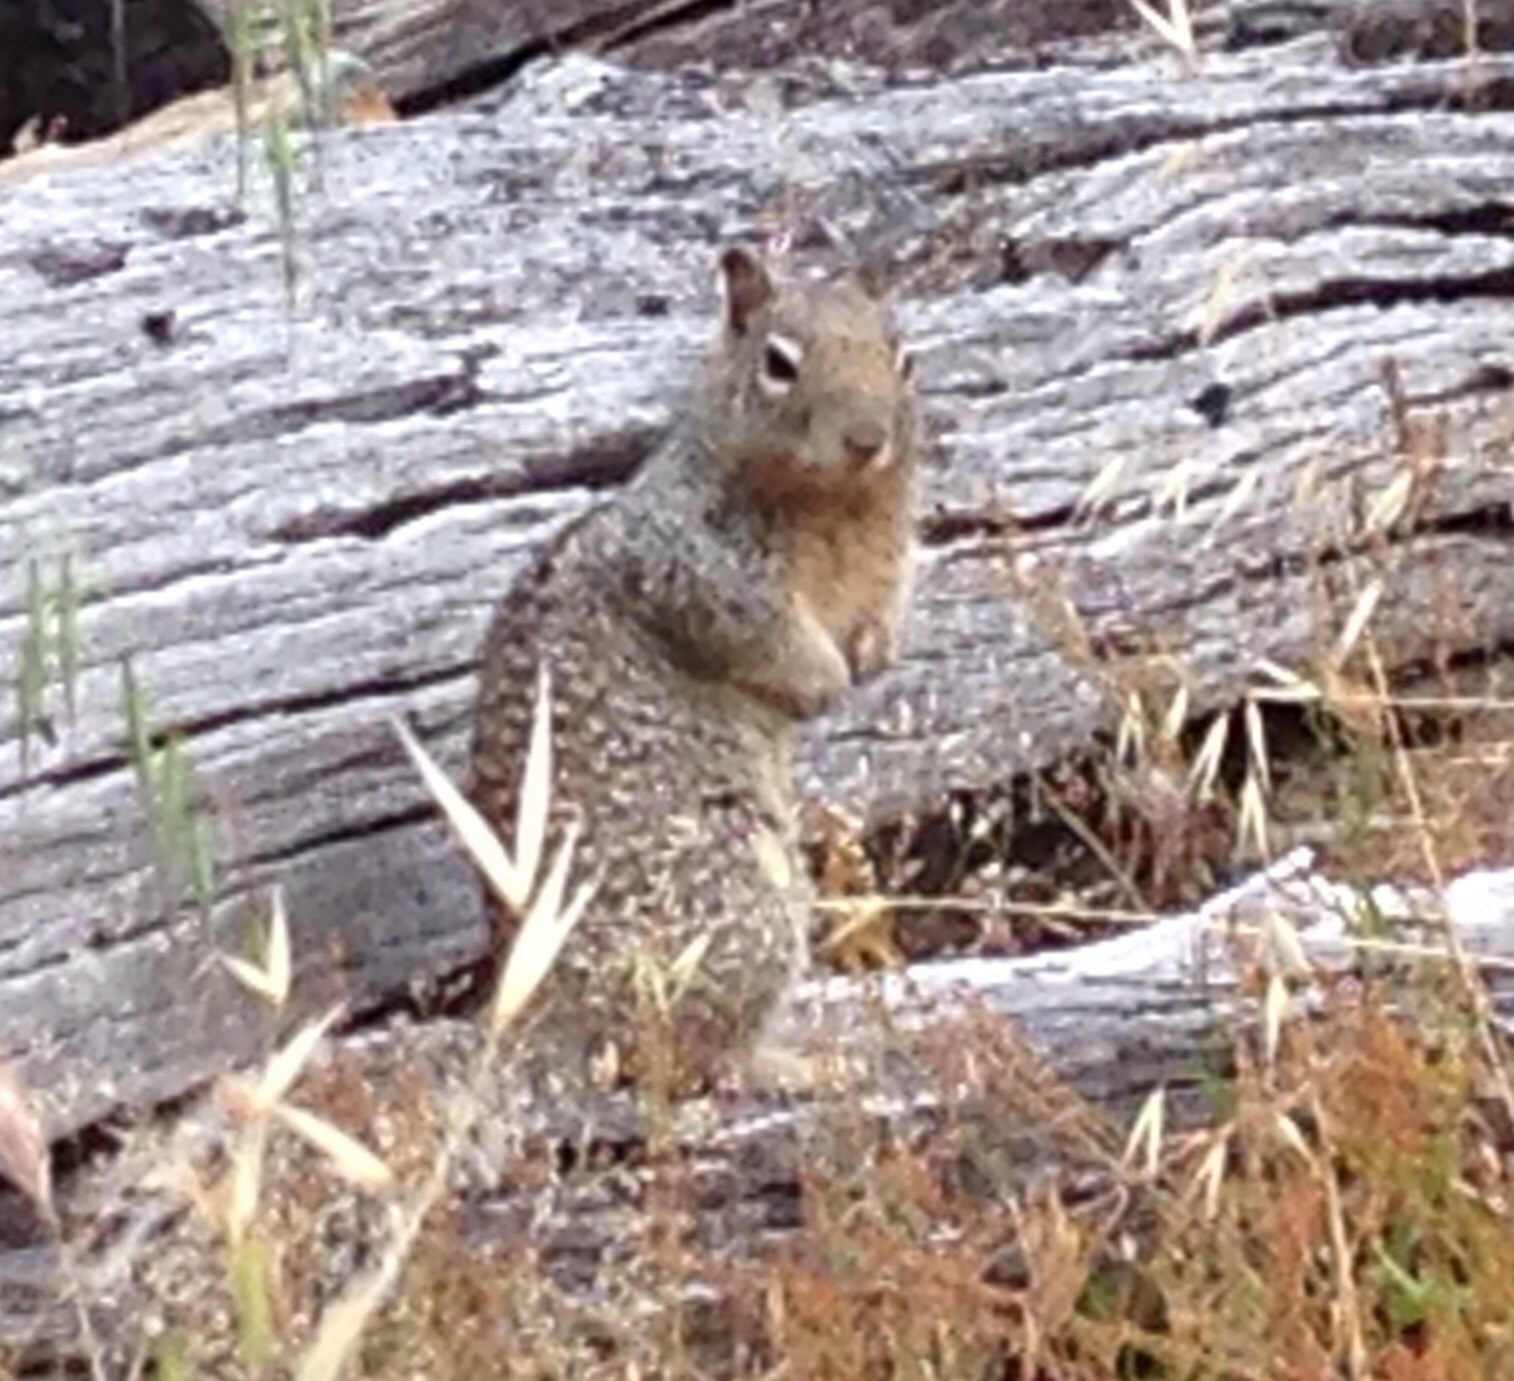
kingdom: Animalia
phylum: Chordata
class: Mammalia
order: Rodentia
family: Sciuridae
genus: Otospermophilus
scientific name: Otospermophilus beecheyi
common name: California ground squirrel
